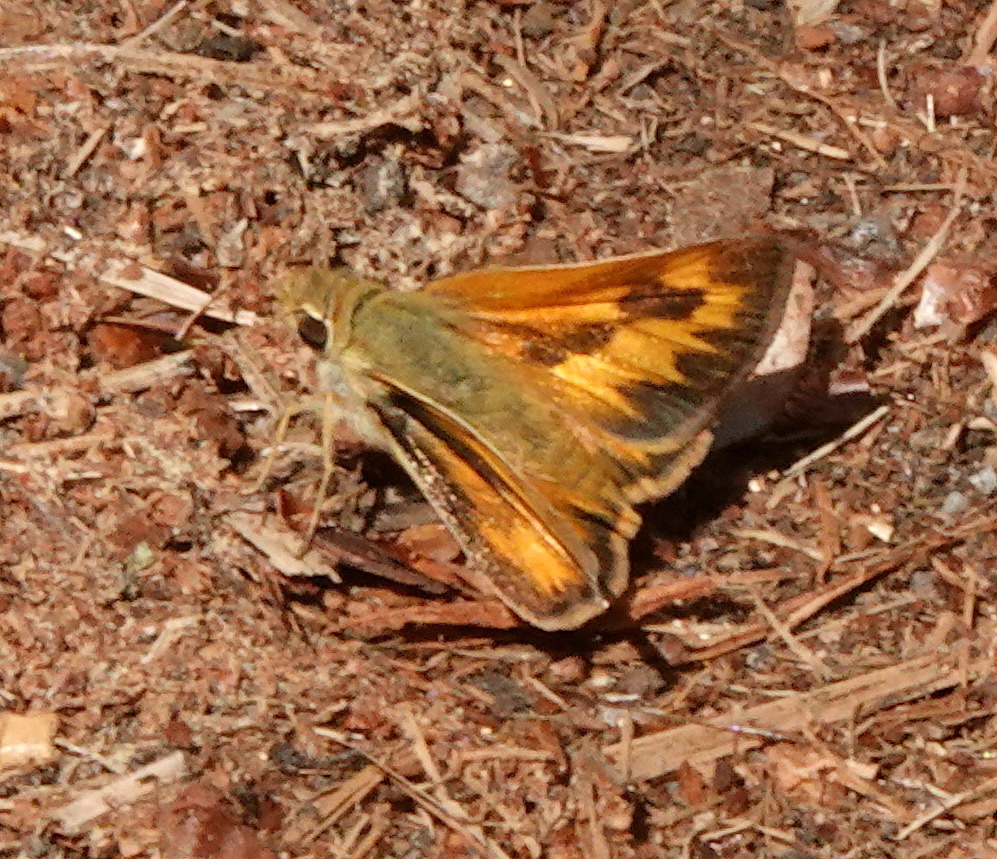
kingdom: Animalia
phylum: Arthropoda
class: Insecta
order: Lepidoptera
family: Hesperiidae
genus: Ochlodes
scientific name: Ochlodes sylvanoides
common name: Woodland skipper
